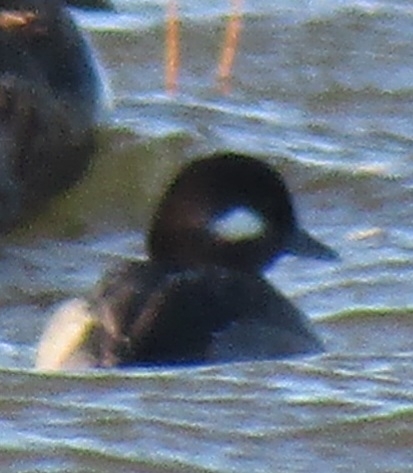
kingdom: Animalia
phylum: Chordata
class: Aves
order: Anseriformes
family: Anatidae
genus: Bucephala
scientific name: Bucephala albeola
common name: Bufflehead
